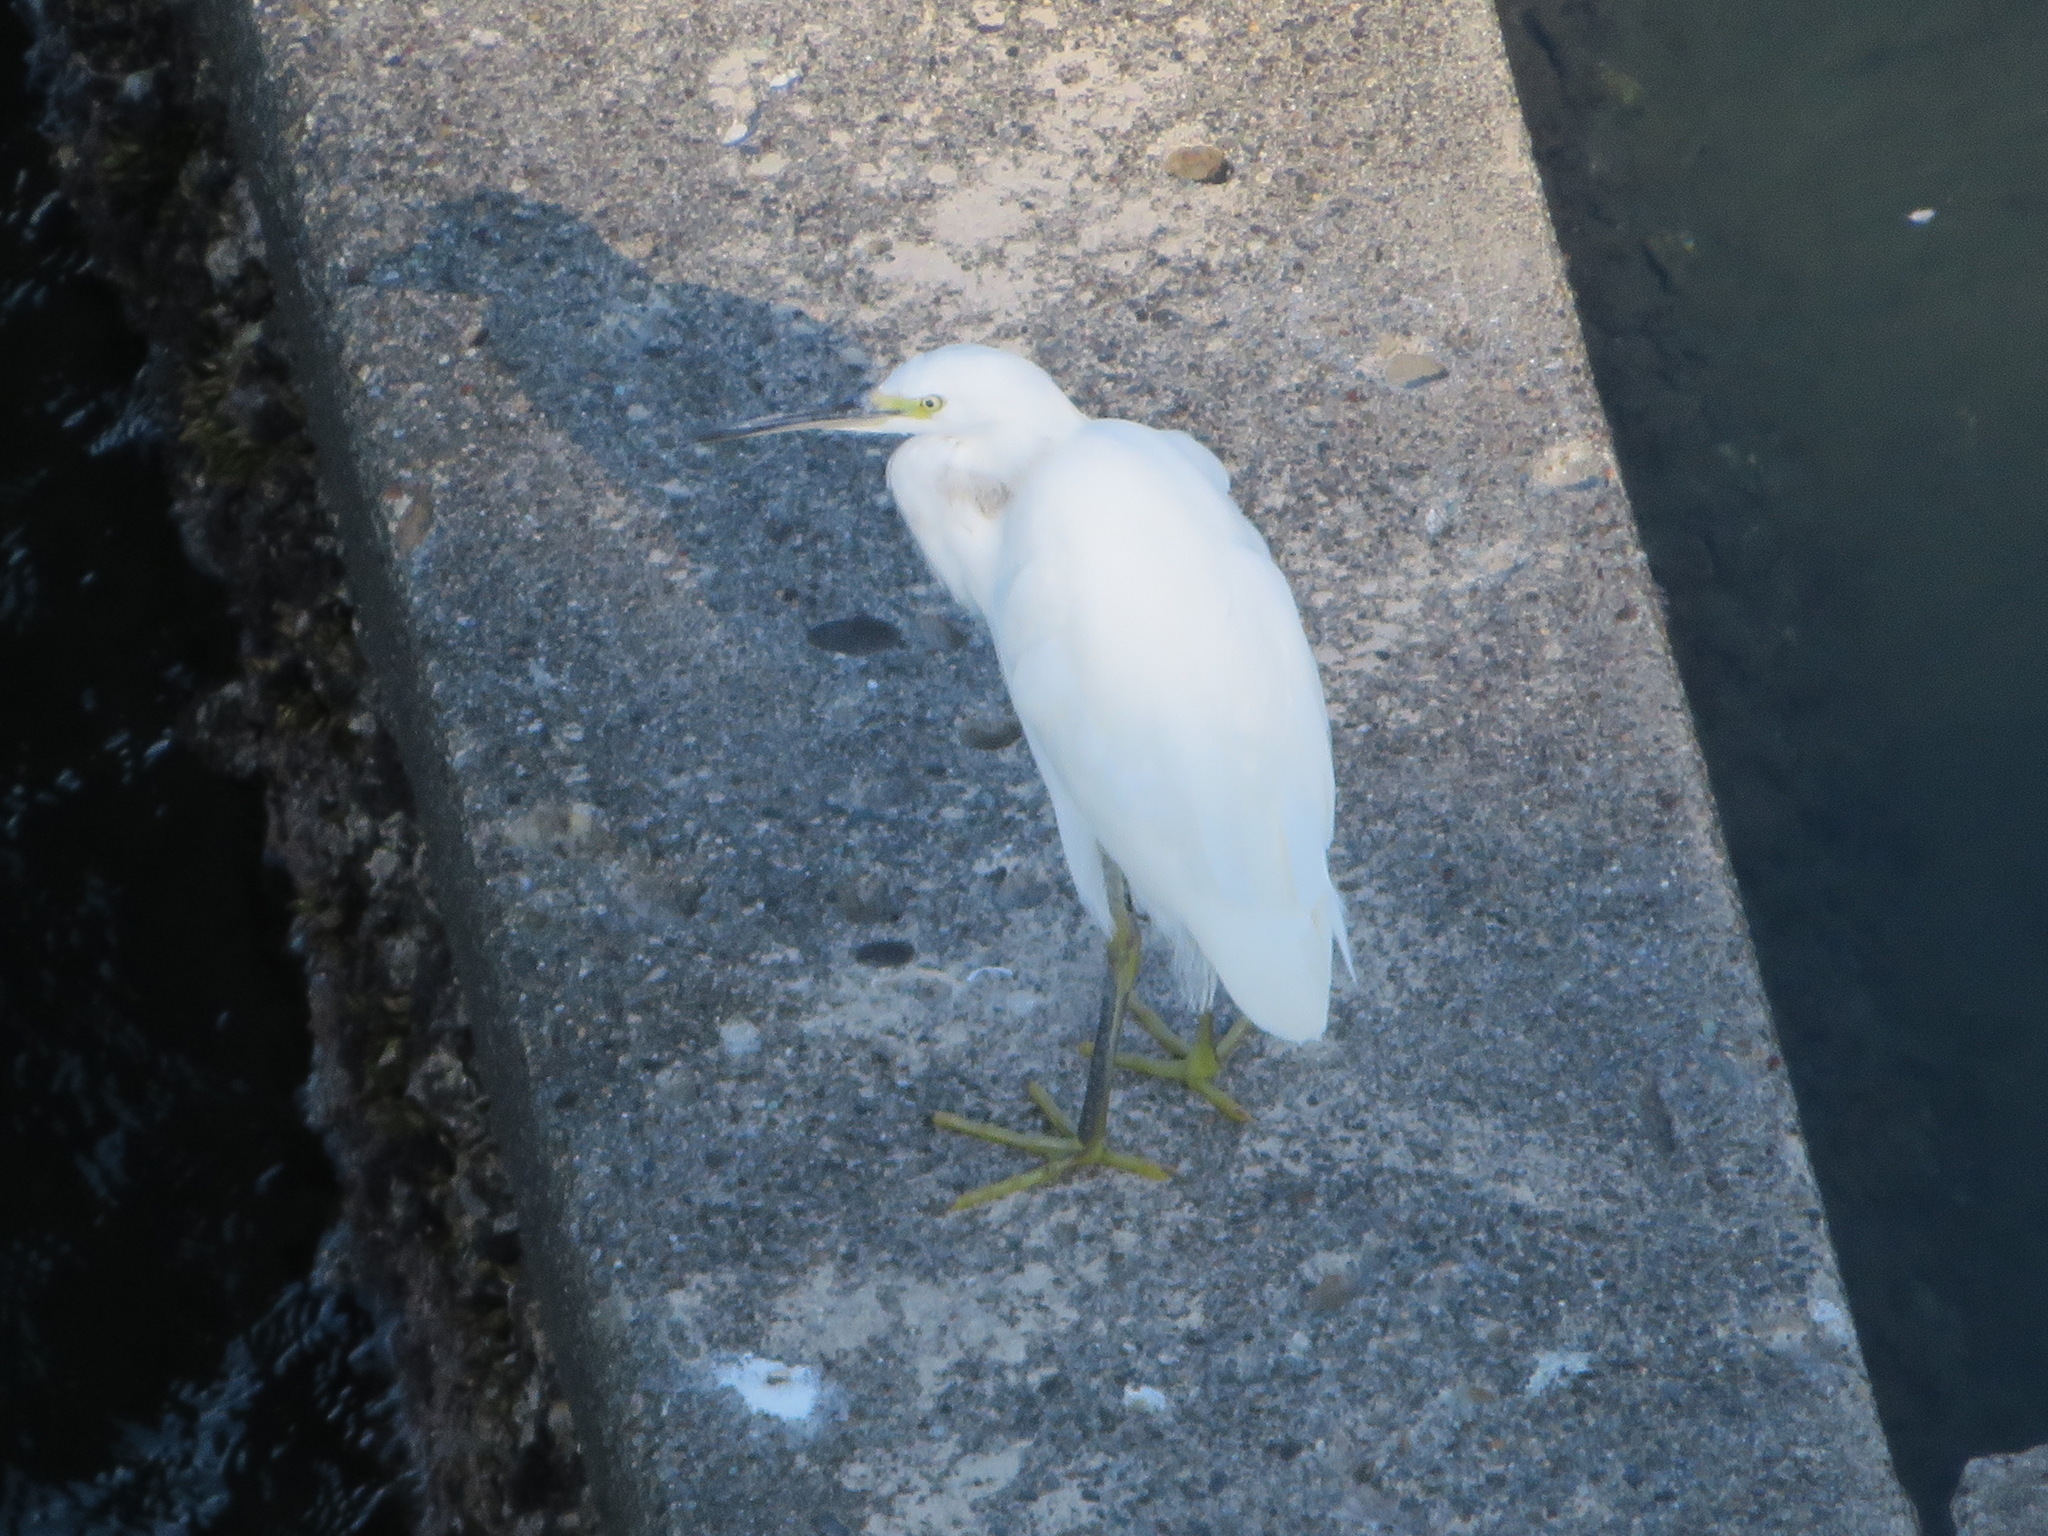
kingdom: Animalia
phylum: Chordata
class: Aves
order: Pelecaniformes
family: Ardeidae
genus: Egretta
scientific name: Egretta garzetta
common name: Little egret
